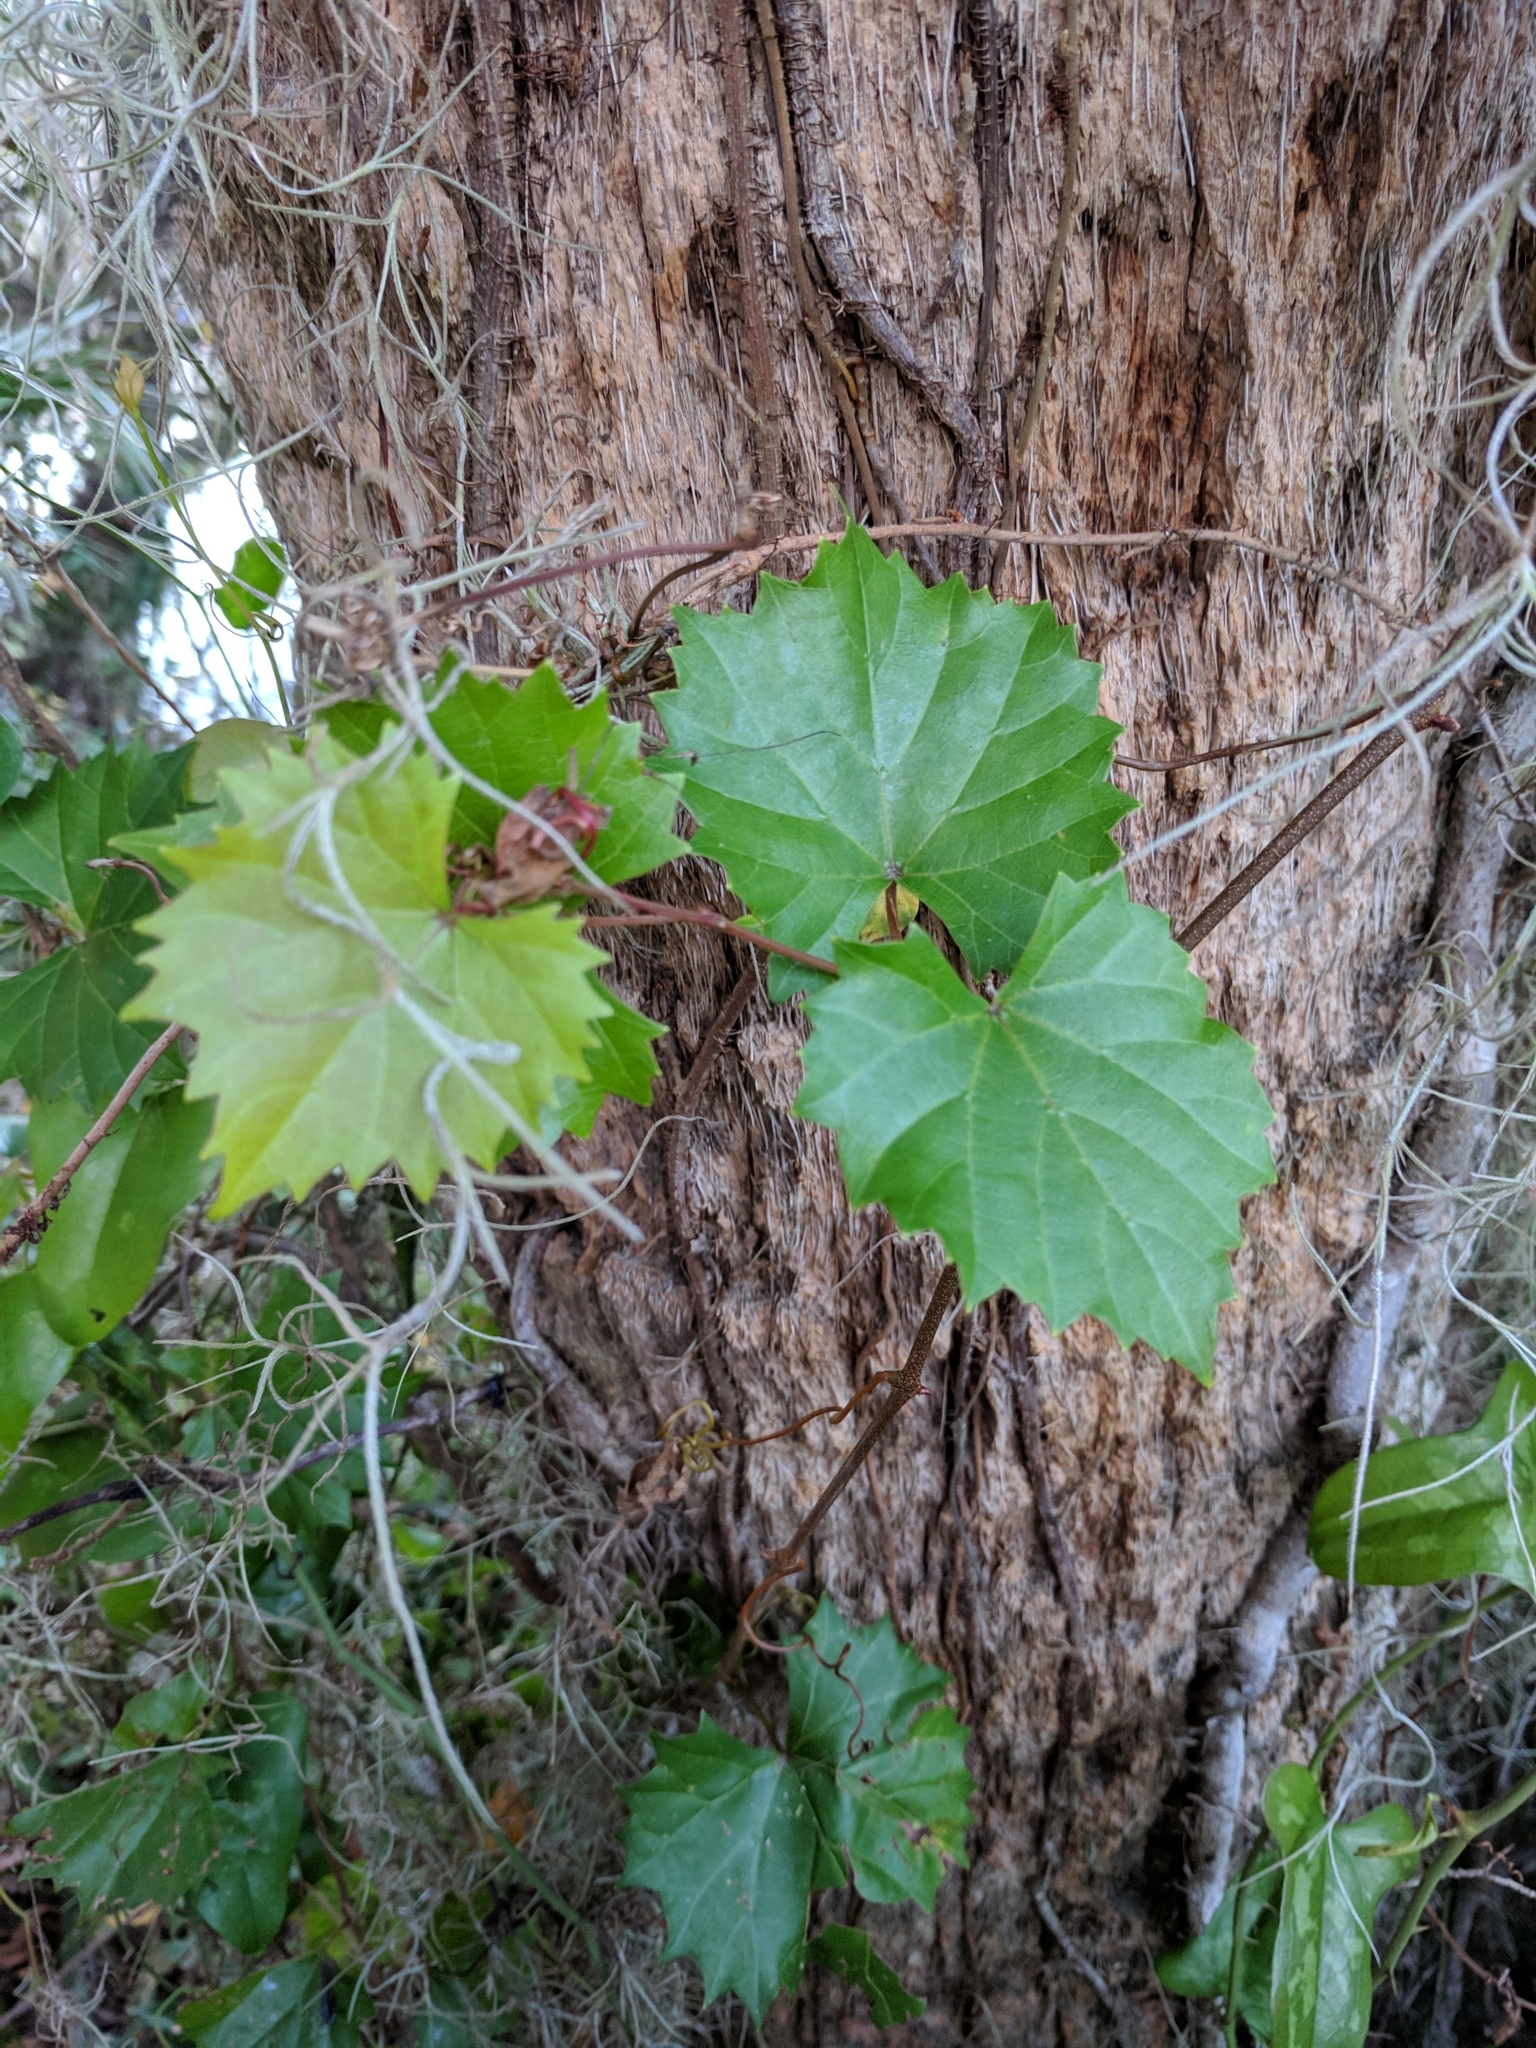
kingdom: Plantae
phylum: Tracheophyta
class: Magnoliopsida
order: Vitales
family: Vitaceae
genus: Vitis
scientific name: Vitis rotundifolia
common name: Muscadine grape
